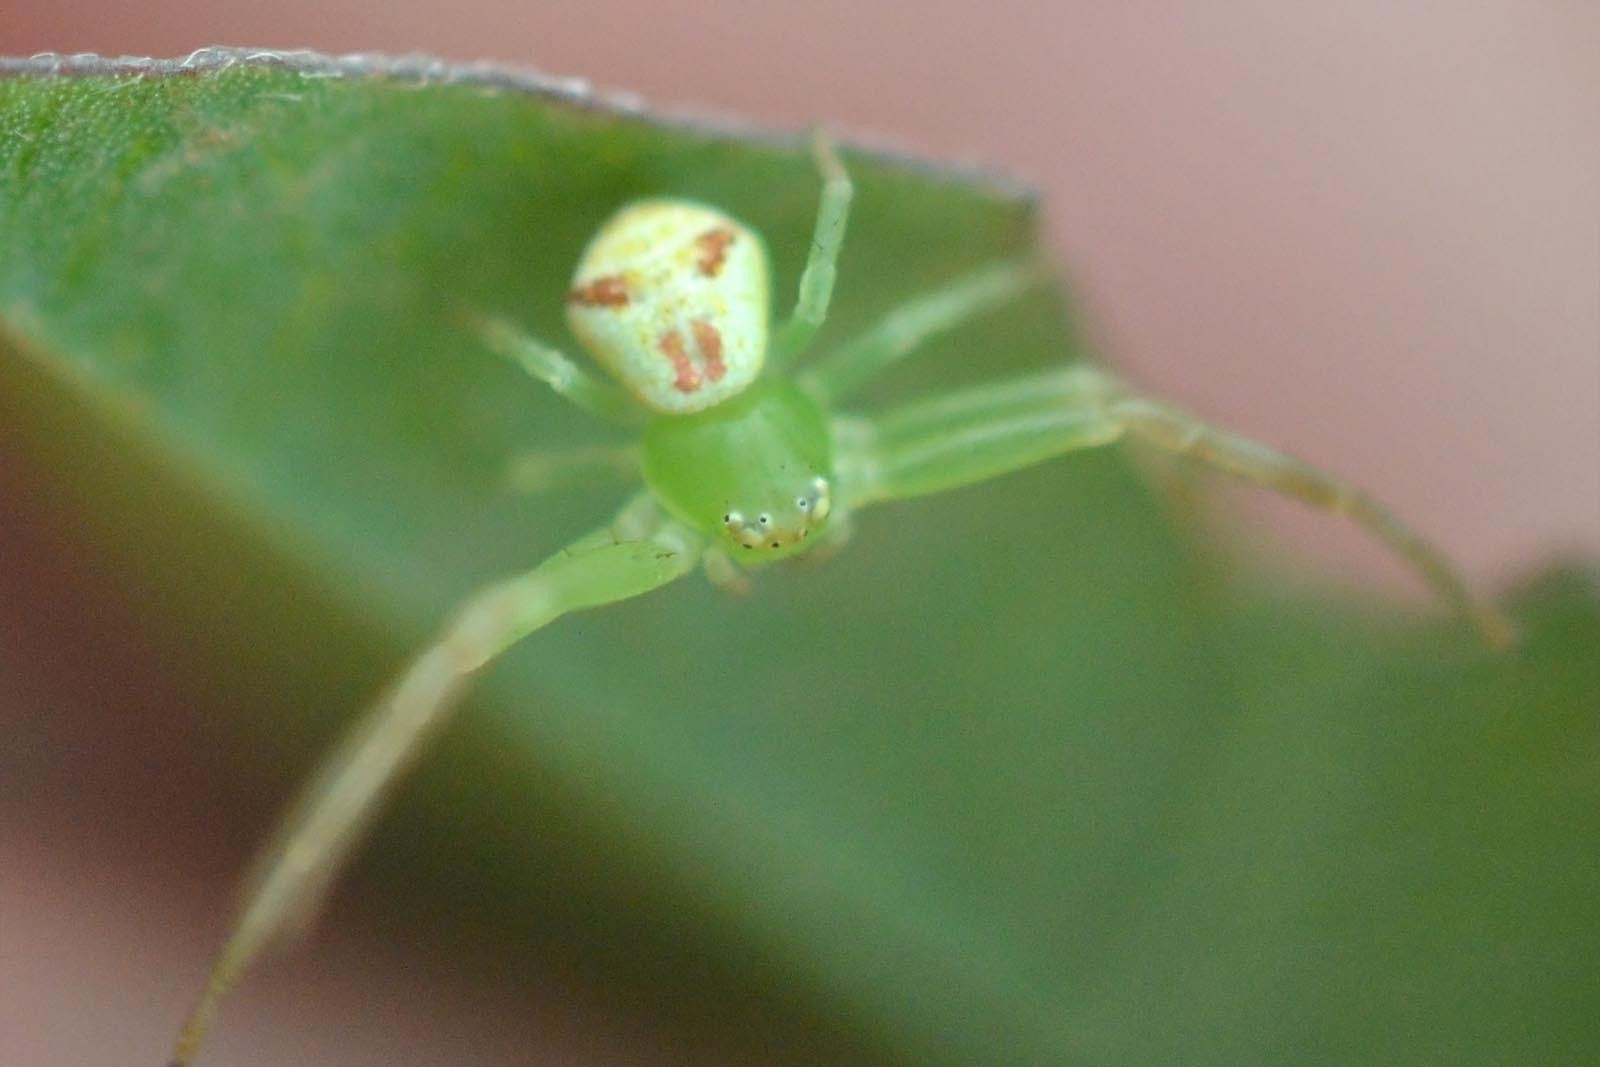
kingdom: Animalia
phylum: Arthropoda
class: Arachnida
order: Araneae
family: Thomisidae
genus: Ebrechtella
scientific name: Ebrechtella tricuspidata
